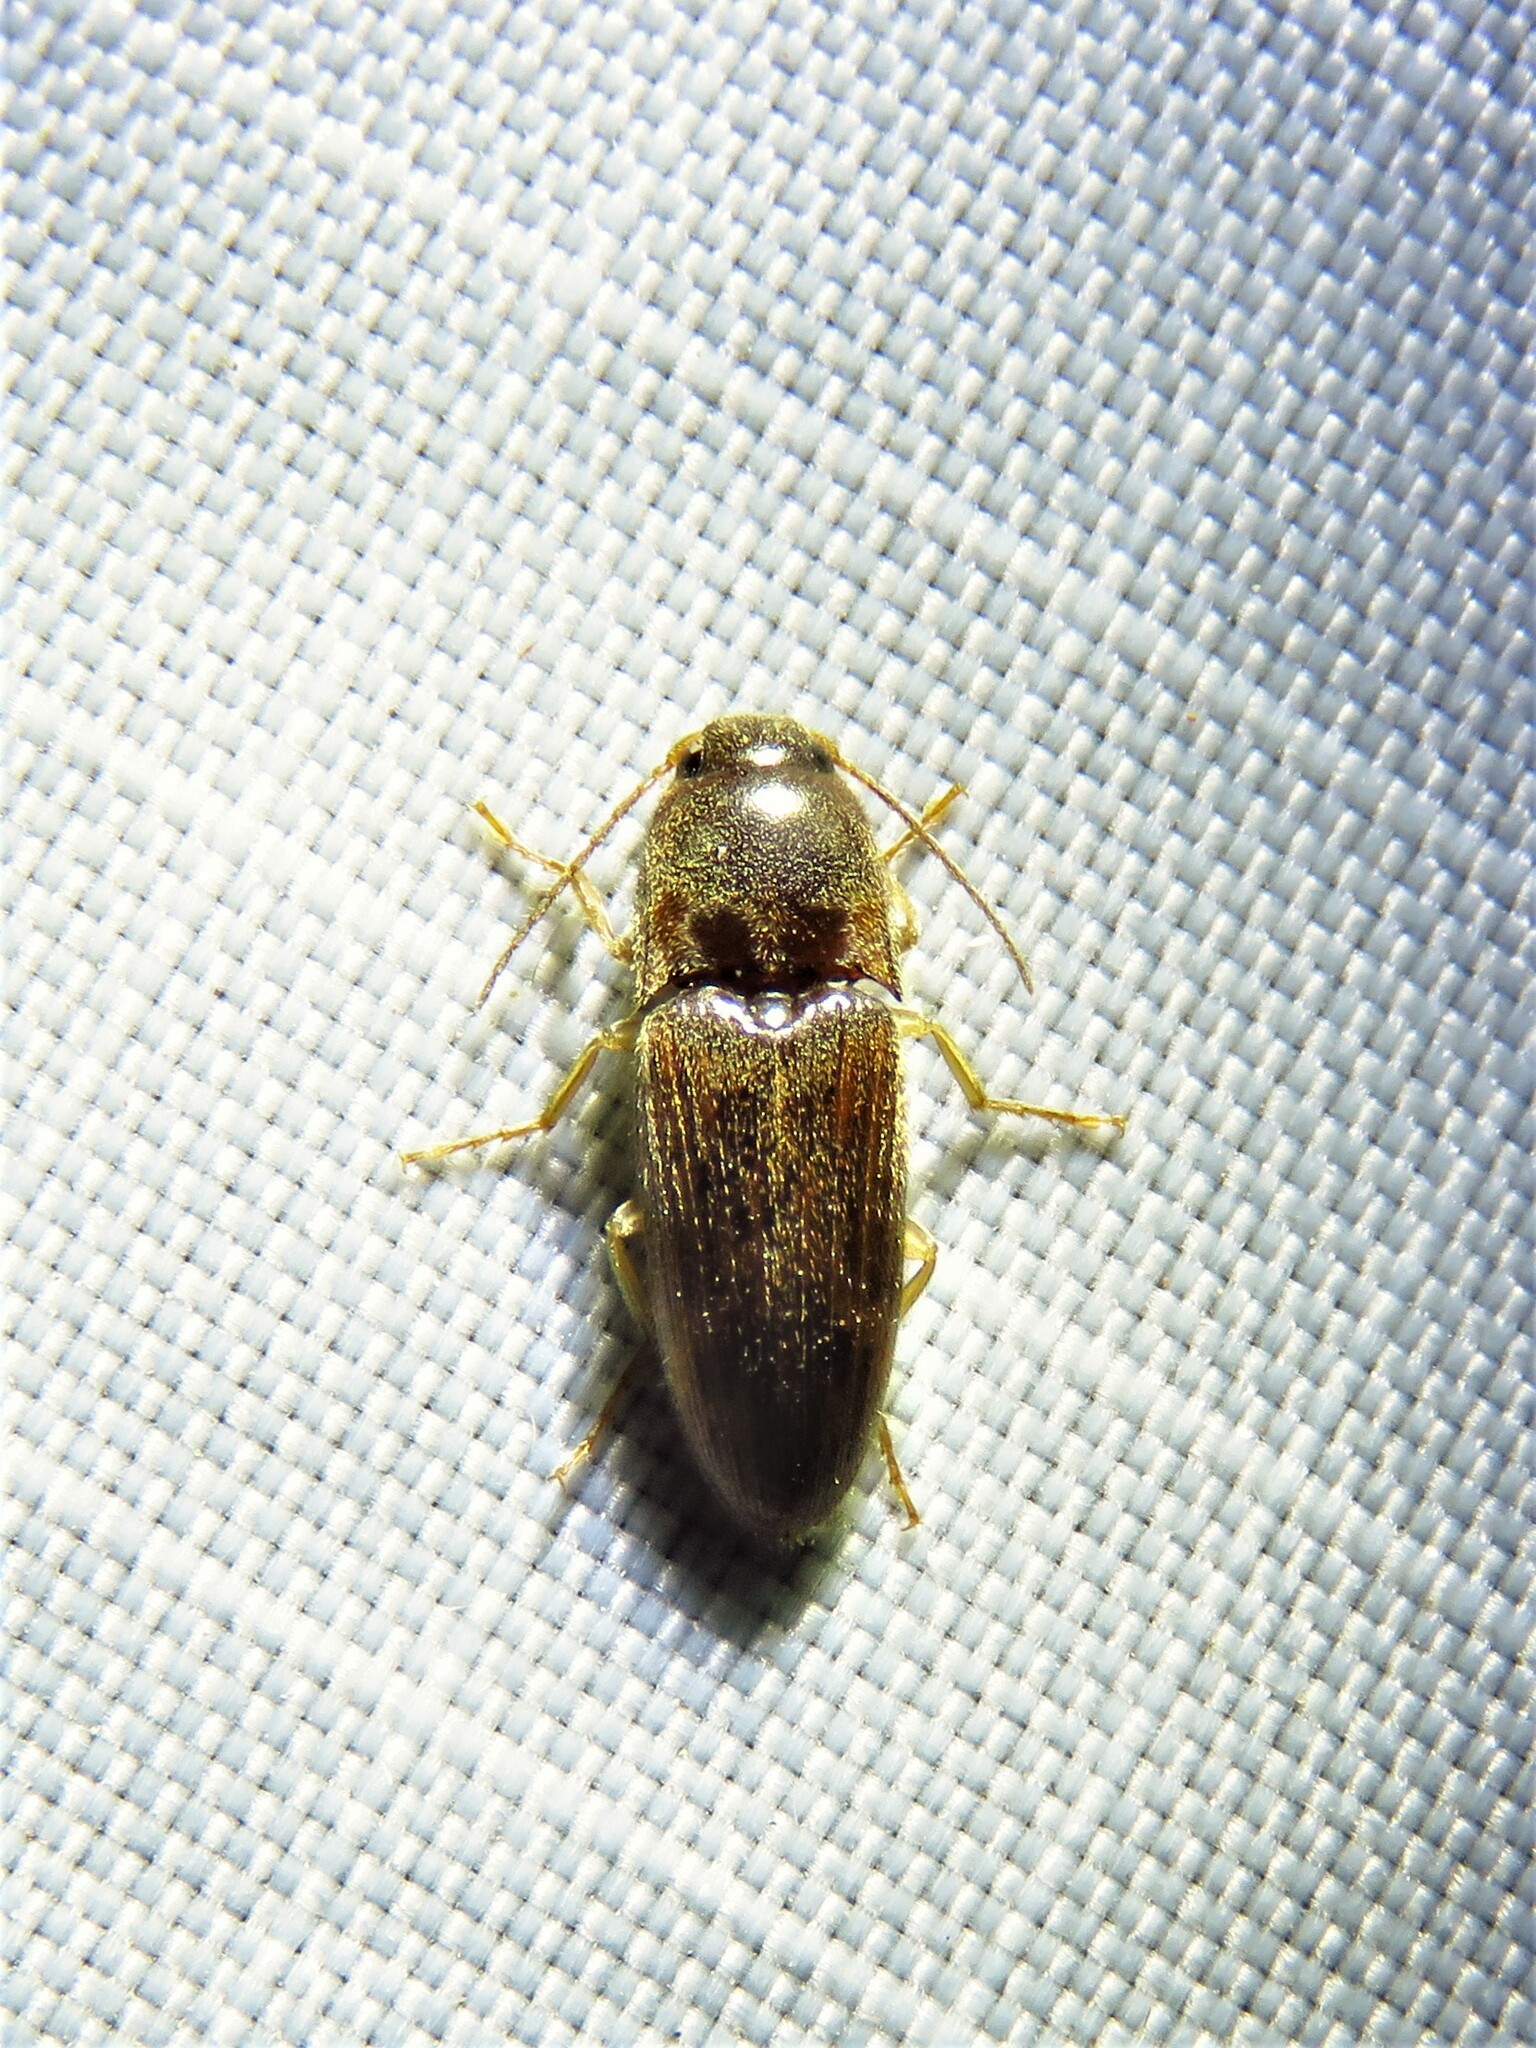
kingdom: Animalia
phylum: Arthropoda
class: Insecta
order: Coleoptera
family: Elateridae
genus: Monocrepidius
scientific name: Monocrepidius
